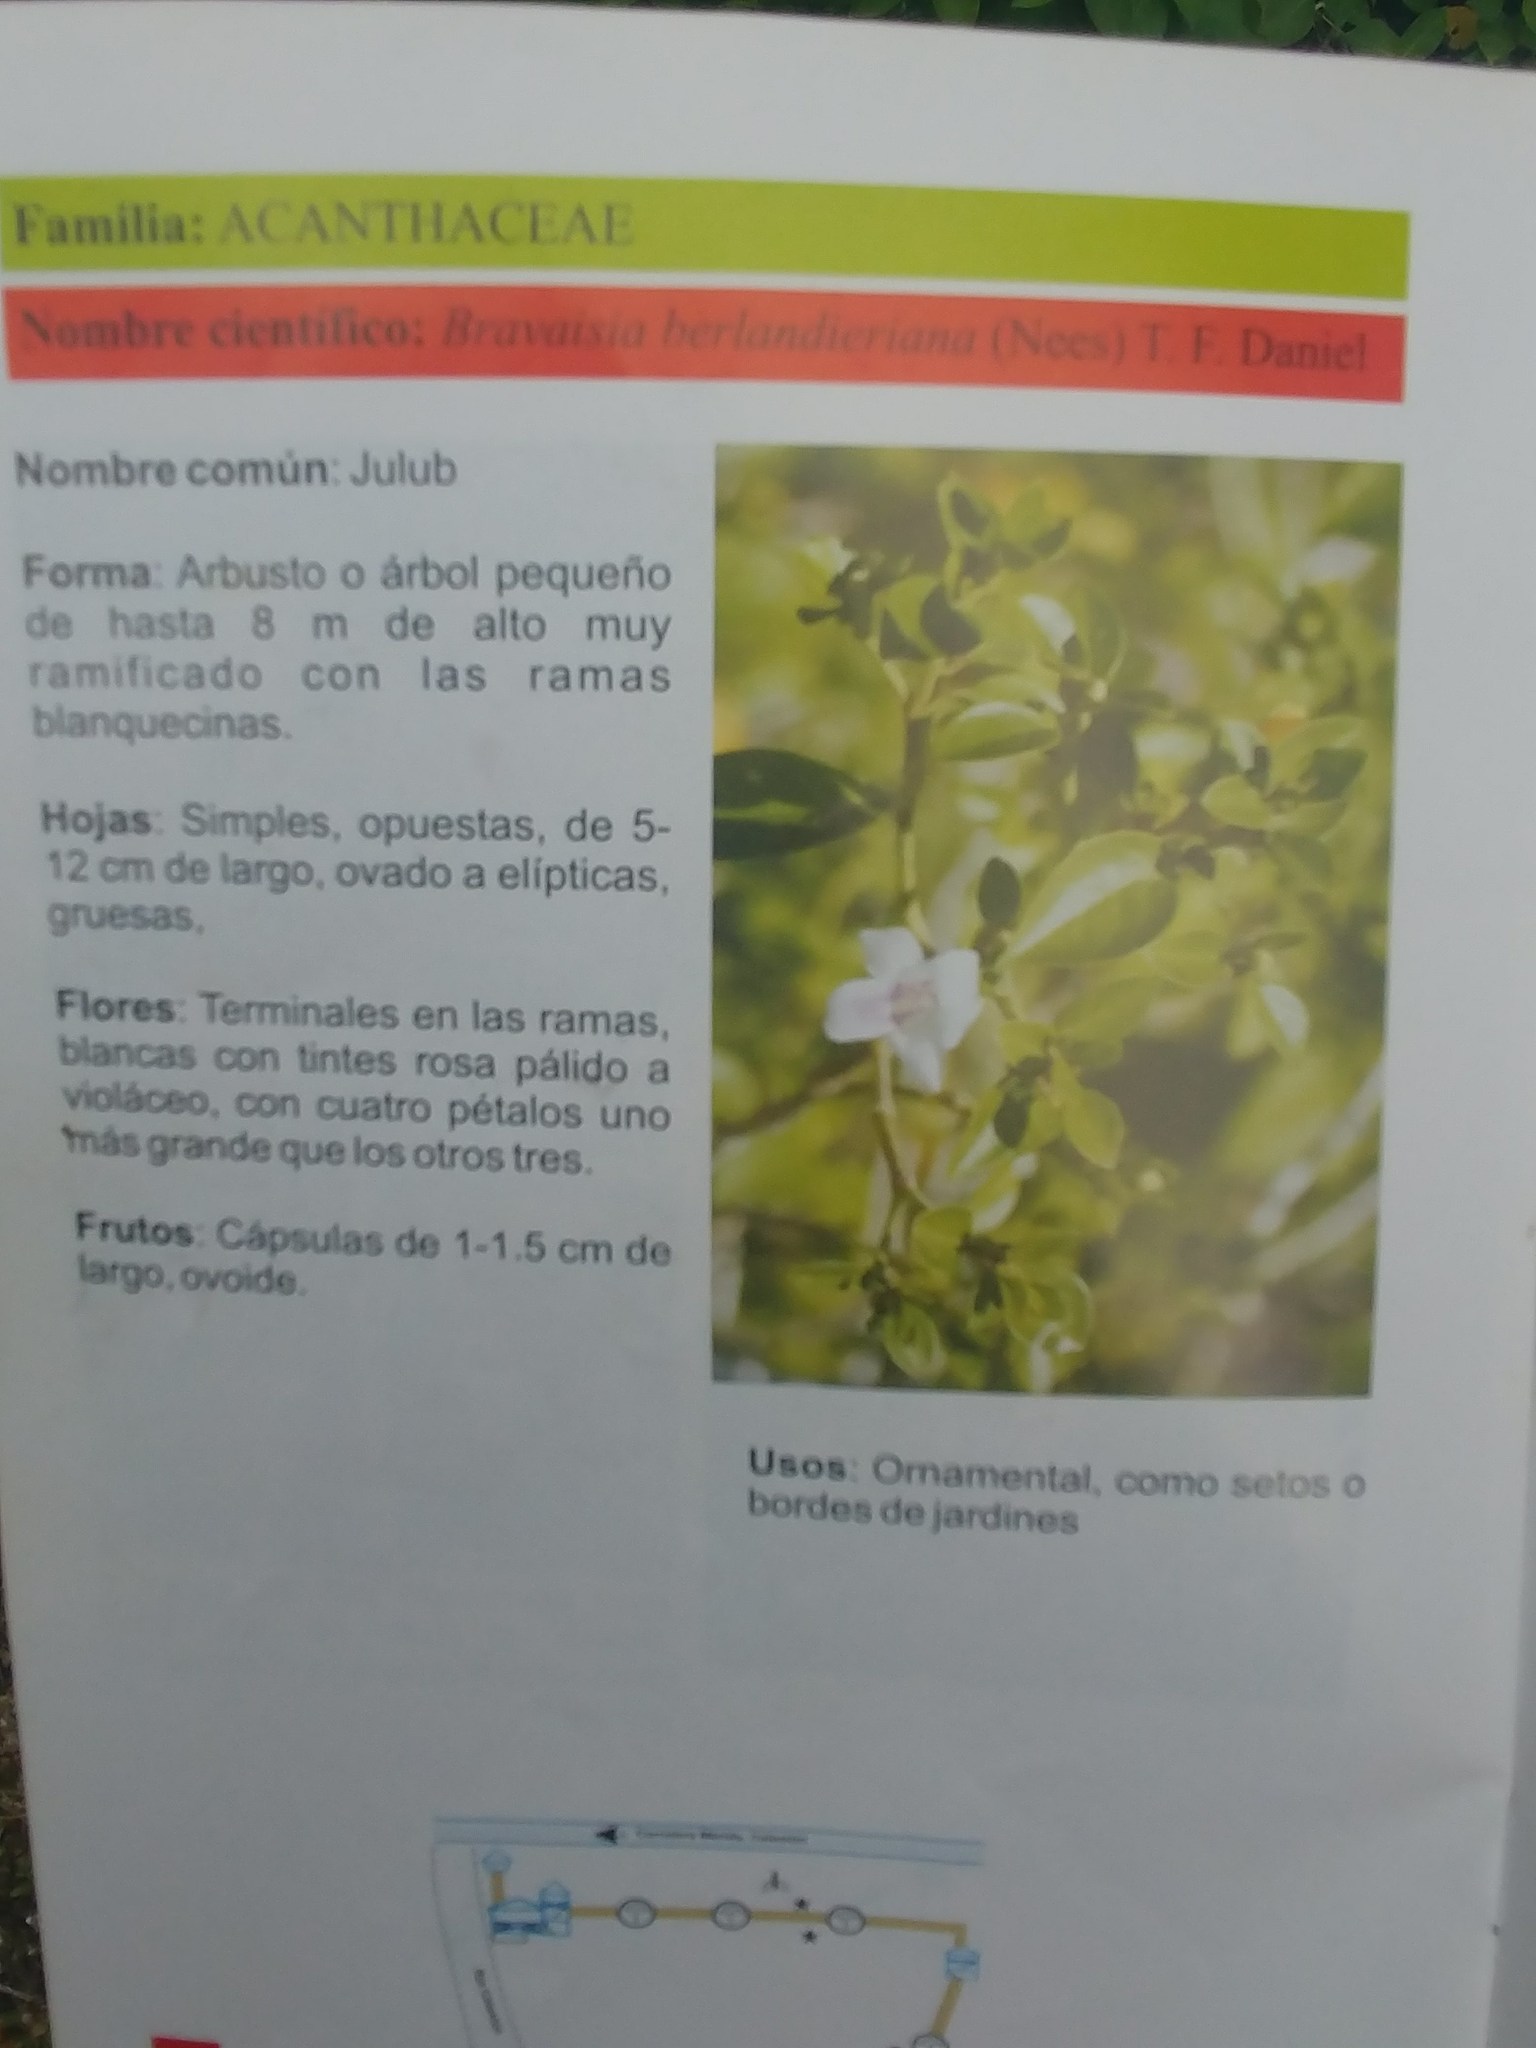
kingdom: Plantae
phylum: Tracheophyta
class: Magnoliopsida
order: Lamiales
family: Acanthaceae
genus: Bravaisia
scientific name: Bravaisia berlandieriana
